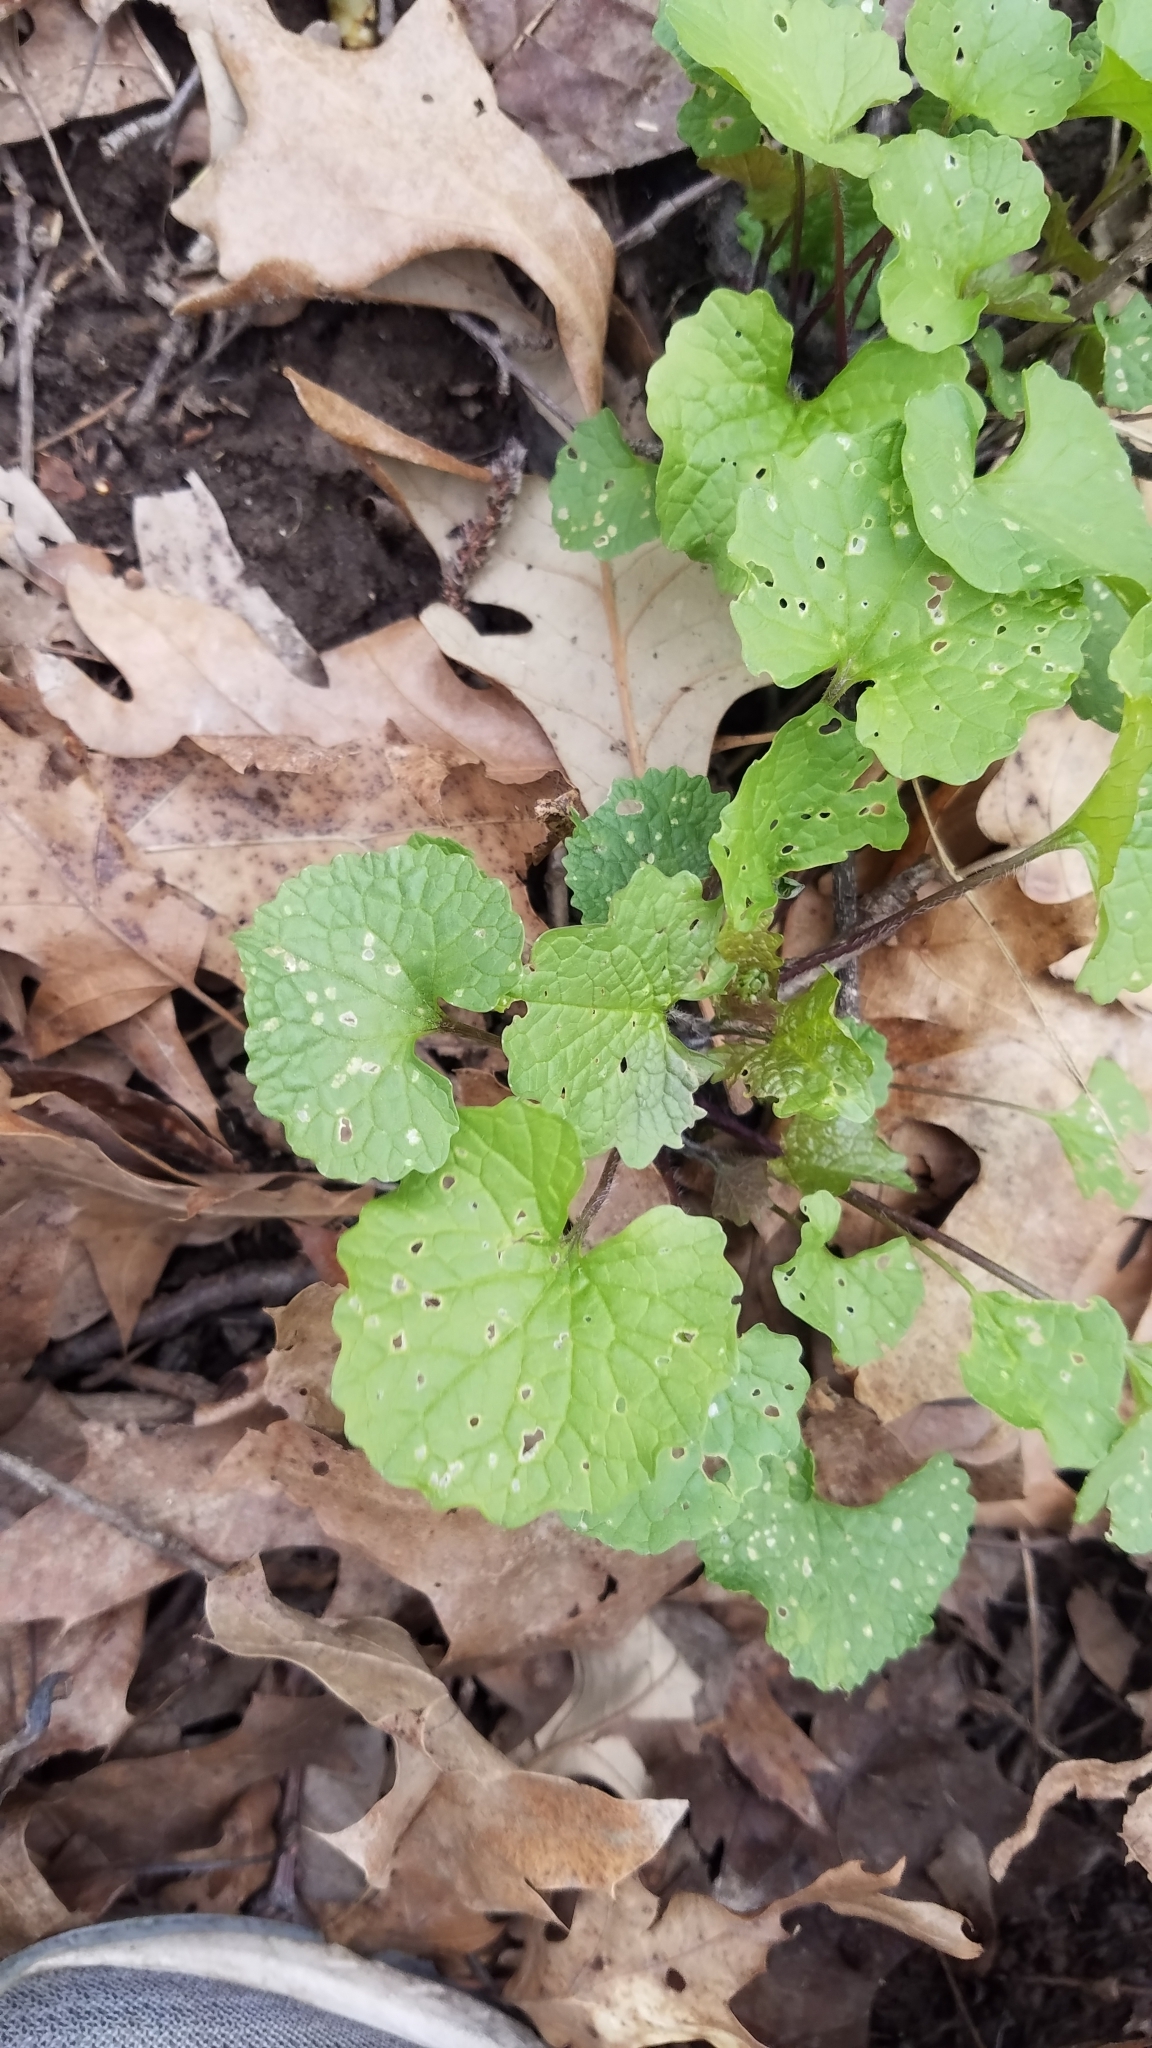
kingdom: Plantae
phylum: Tracheophyta
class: Magnoliopsida
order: Brassicales
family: Brassicaceae
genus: Alliaria
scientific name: Alliaria petiolata
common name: Garlic mustard
